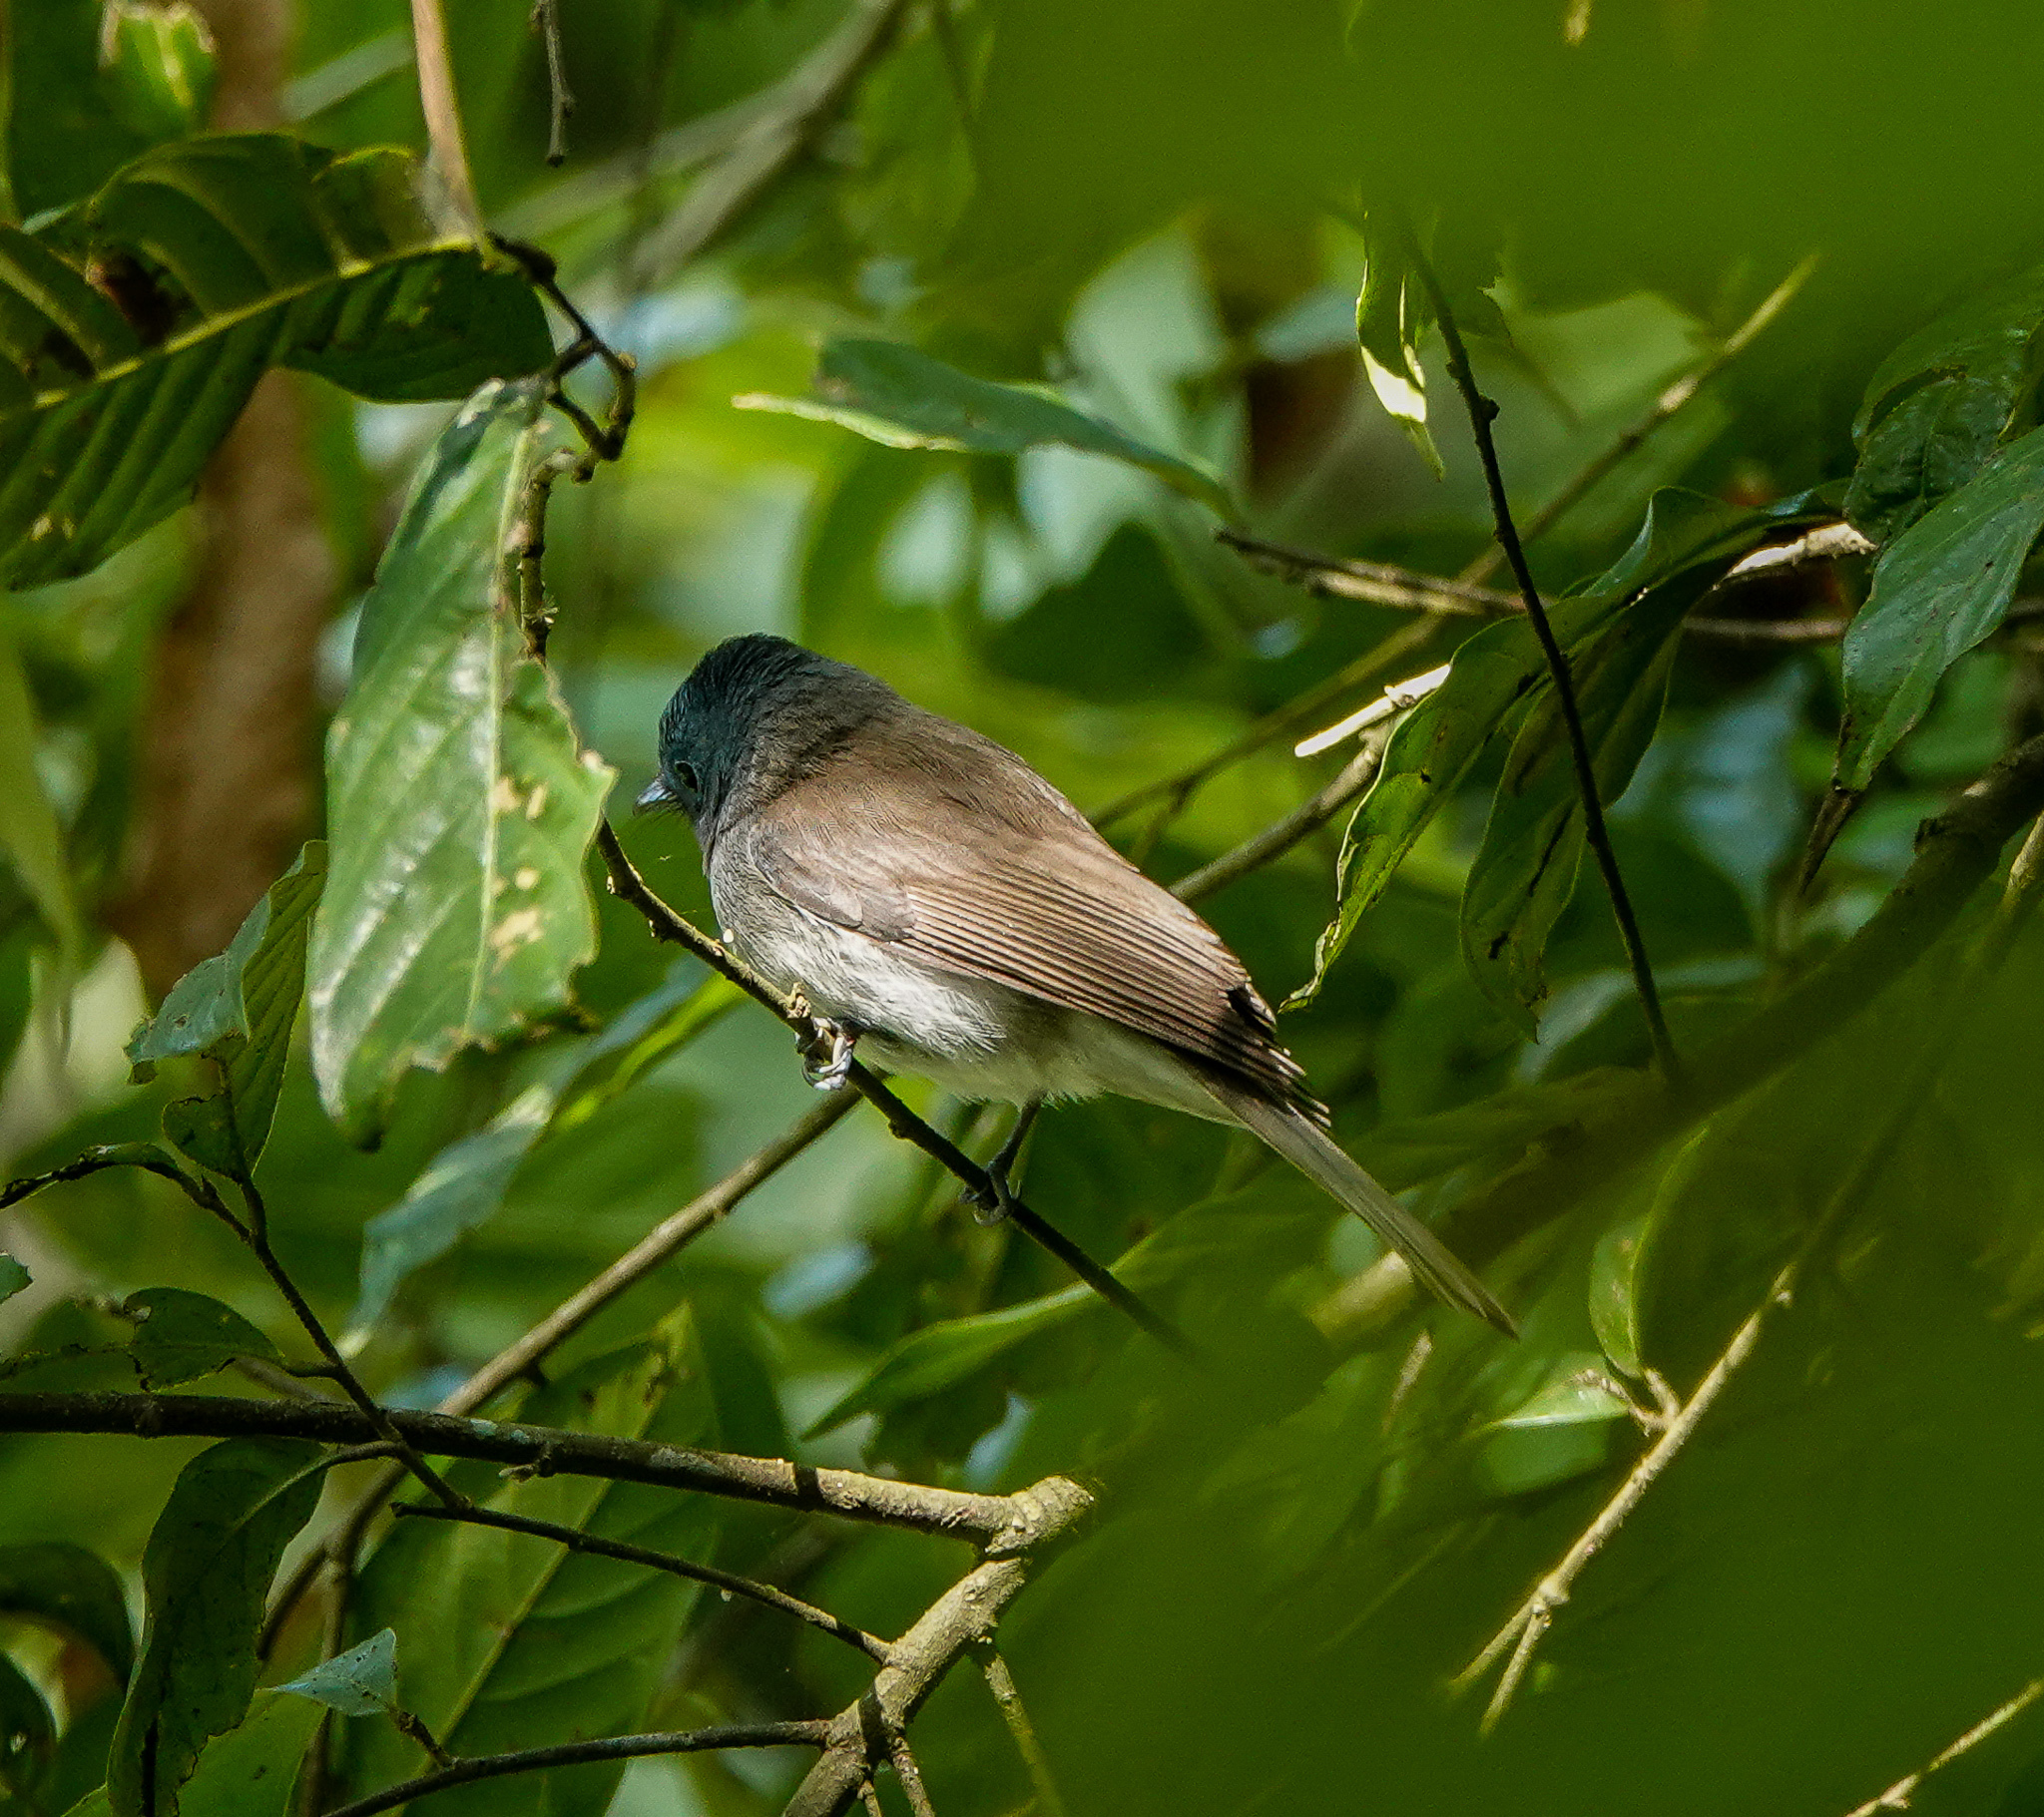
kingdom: Animalia
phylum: Chordata
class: Aves
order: Passeriformes
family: Monarchidae
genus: Hypothymis
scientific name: Hypothymis azurea
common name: Black-naped monarch
